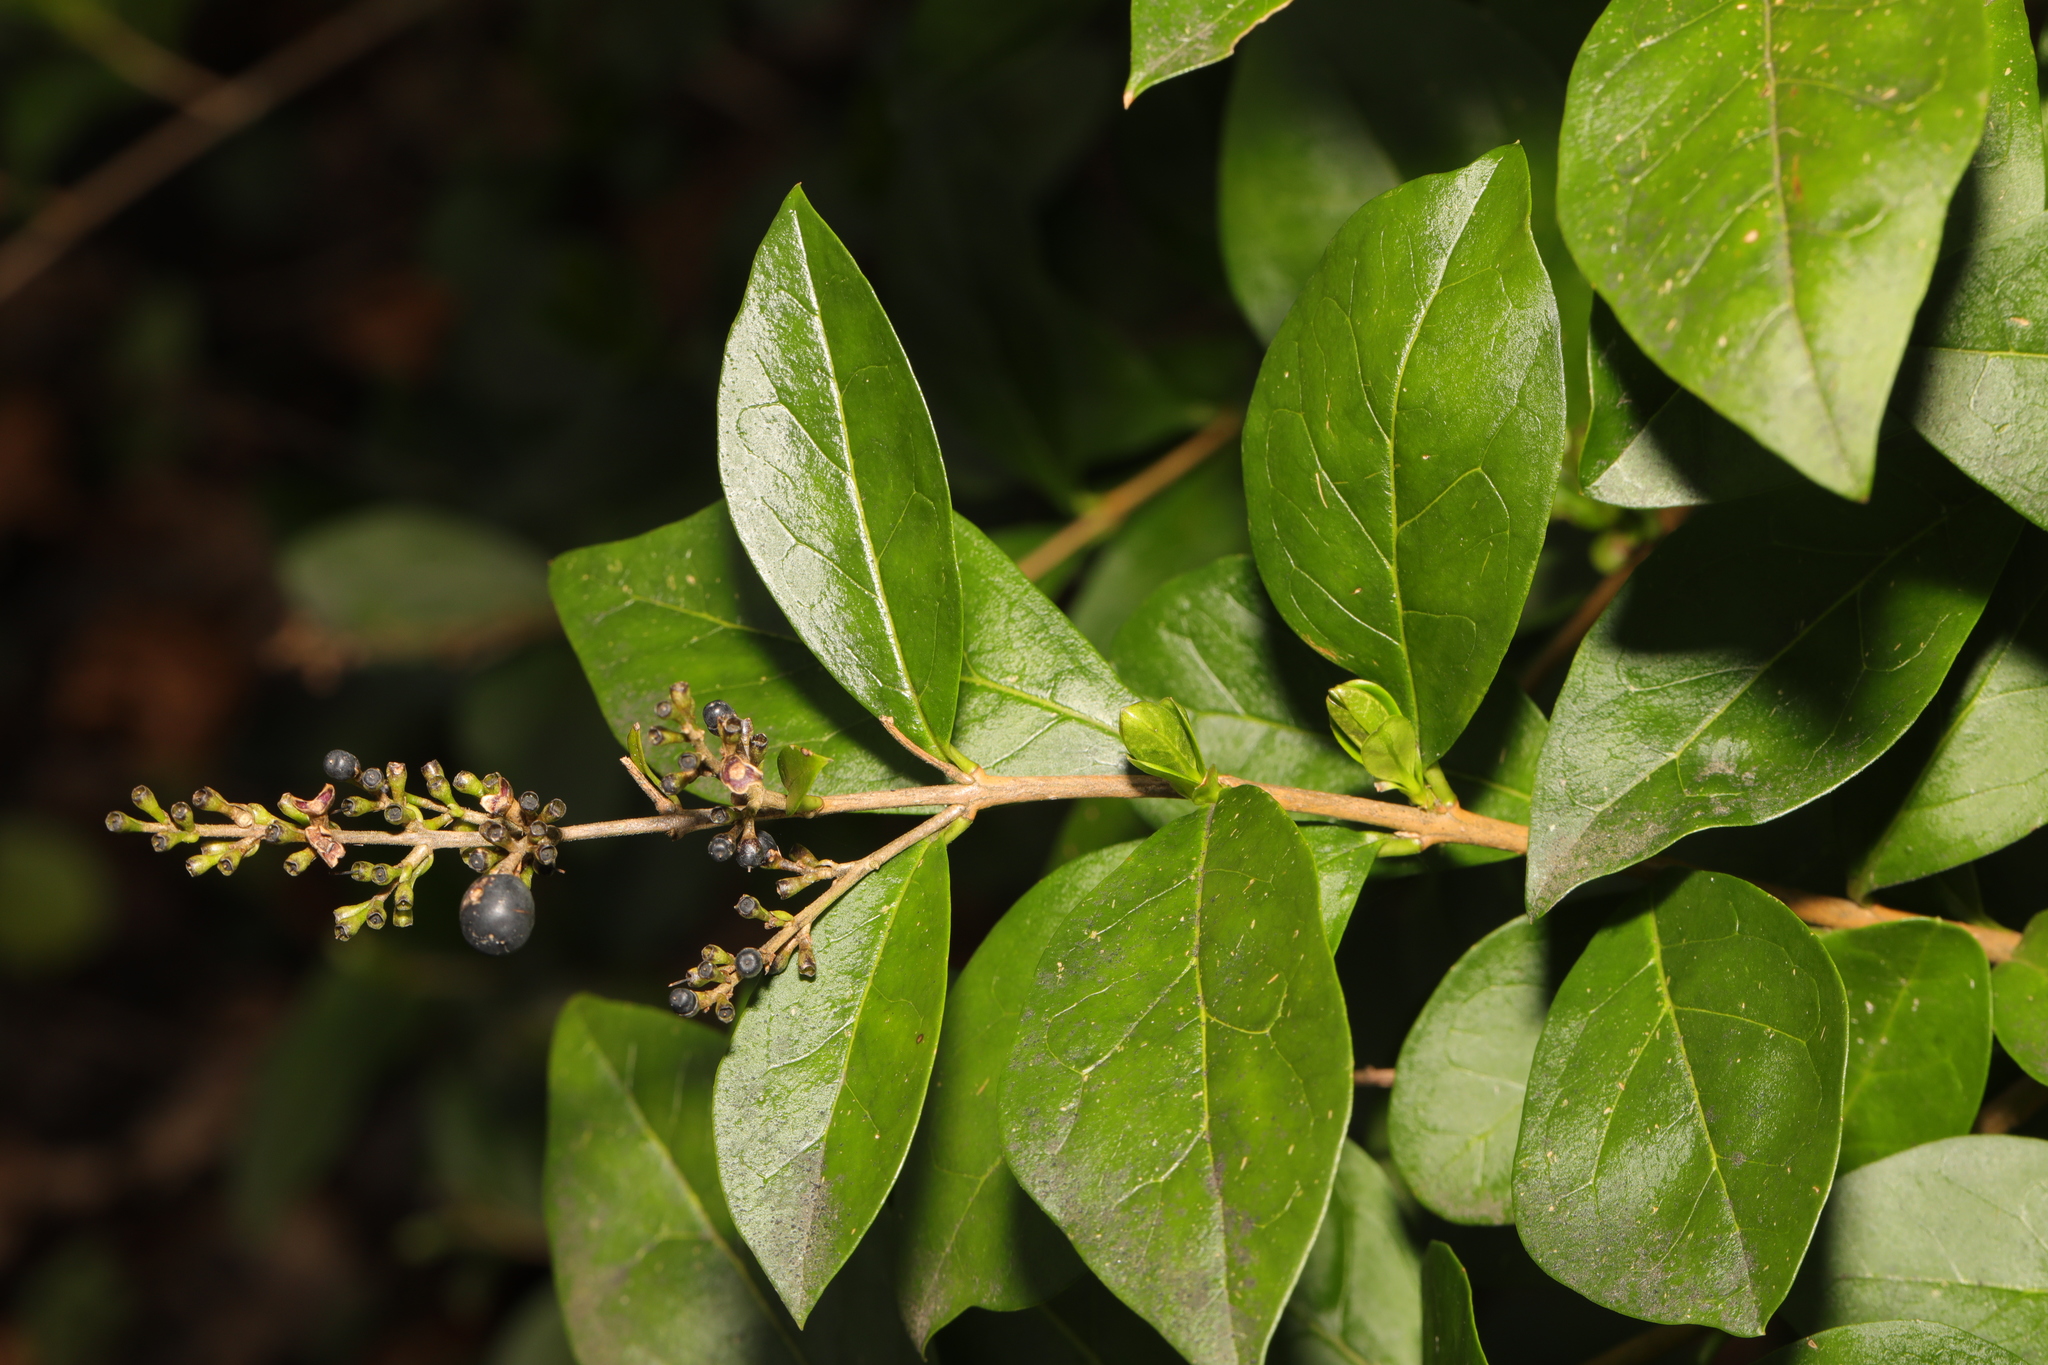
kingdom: Plantae
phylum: Tracheophyta
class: Magnoliopsida
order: Lamiales
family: Oleaceae
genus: Ligustrum
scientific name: Ligustrum ovalifolium
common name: California privet
